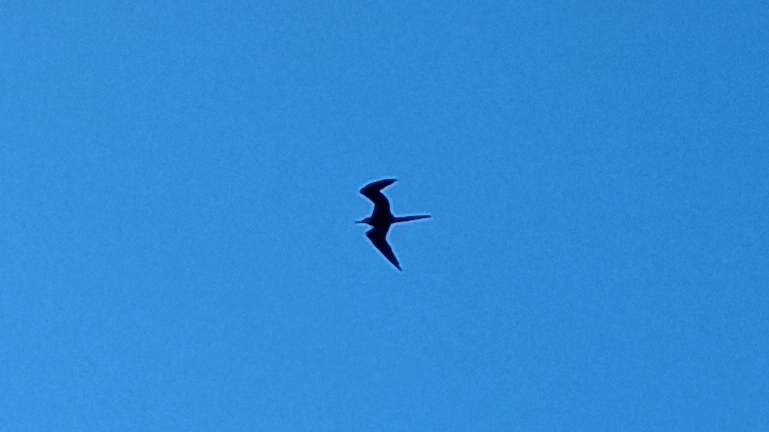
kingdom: Animalia
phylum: Chordata
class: Aves
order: Suliformes
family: Fregatidae
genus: Fregata
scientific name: Fregata magnificens
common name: Magnificent frigatebird
